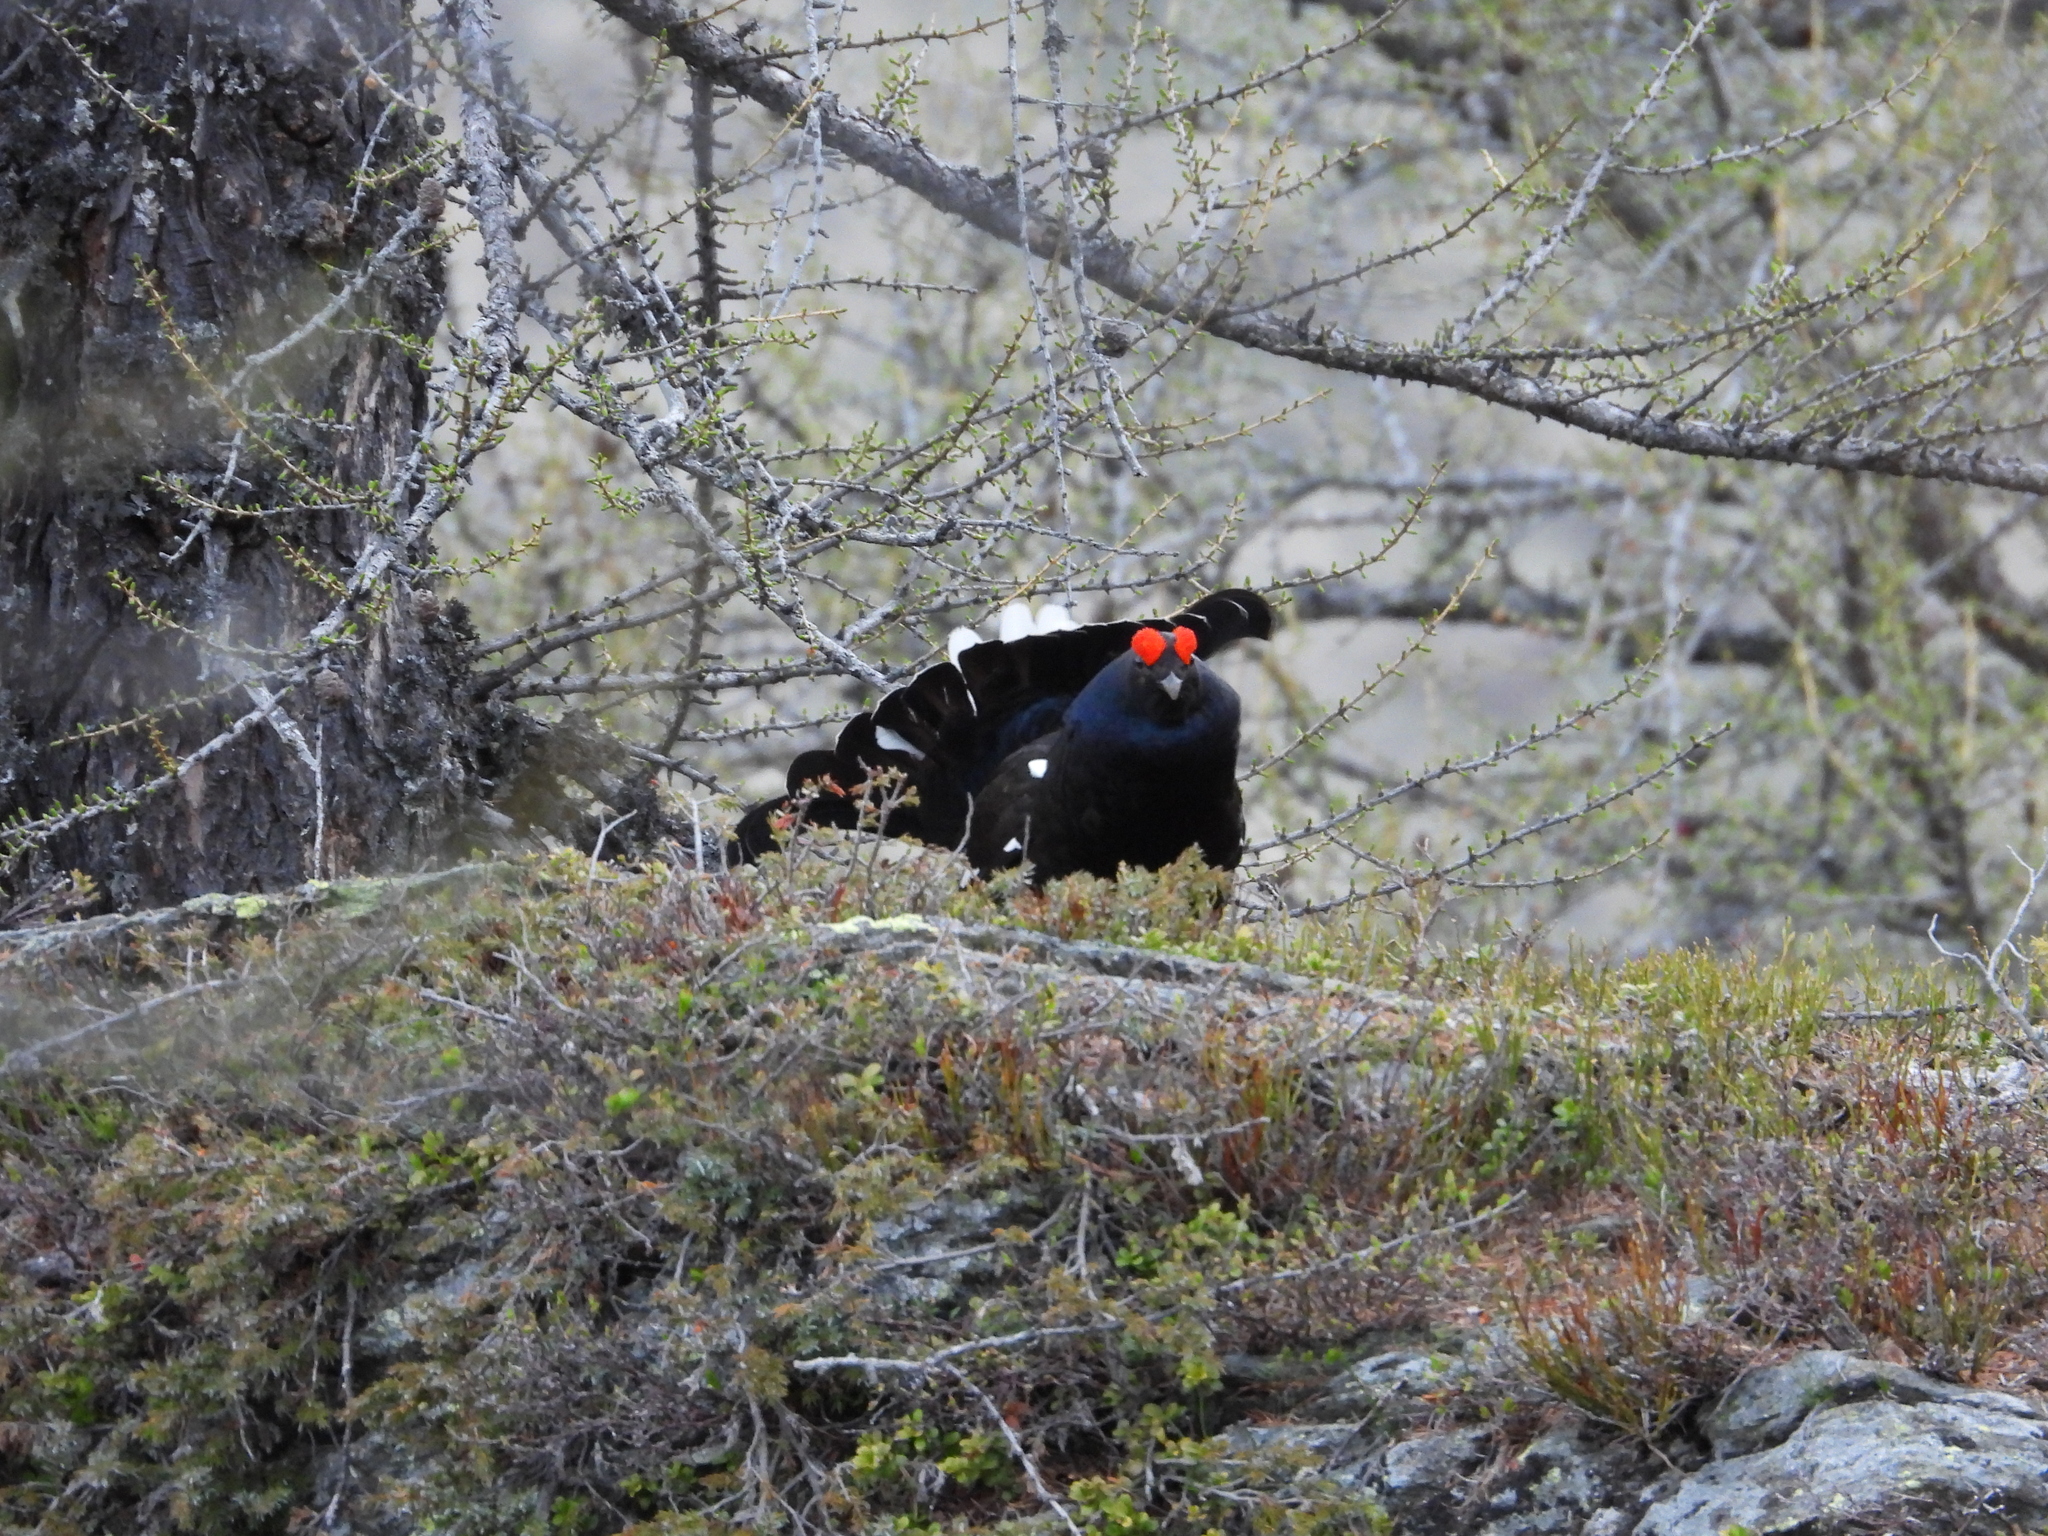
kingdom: Animalia
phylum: Chordata
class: Aves
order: Galliformes
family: Phasianidae
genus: Lyrurus
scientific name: Lyrurus tetrix
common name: Black grouse
